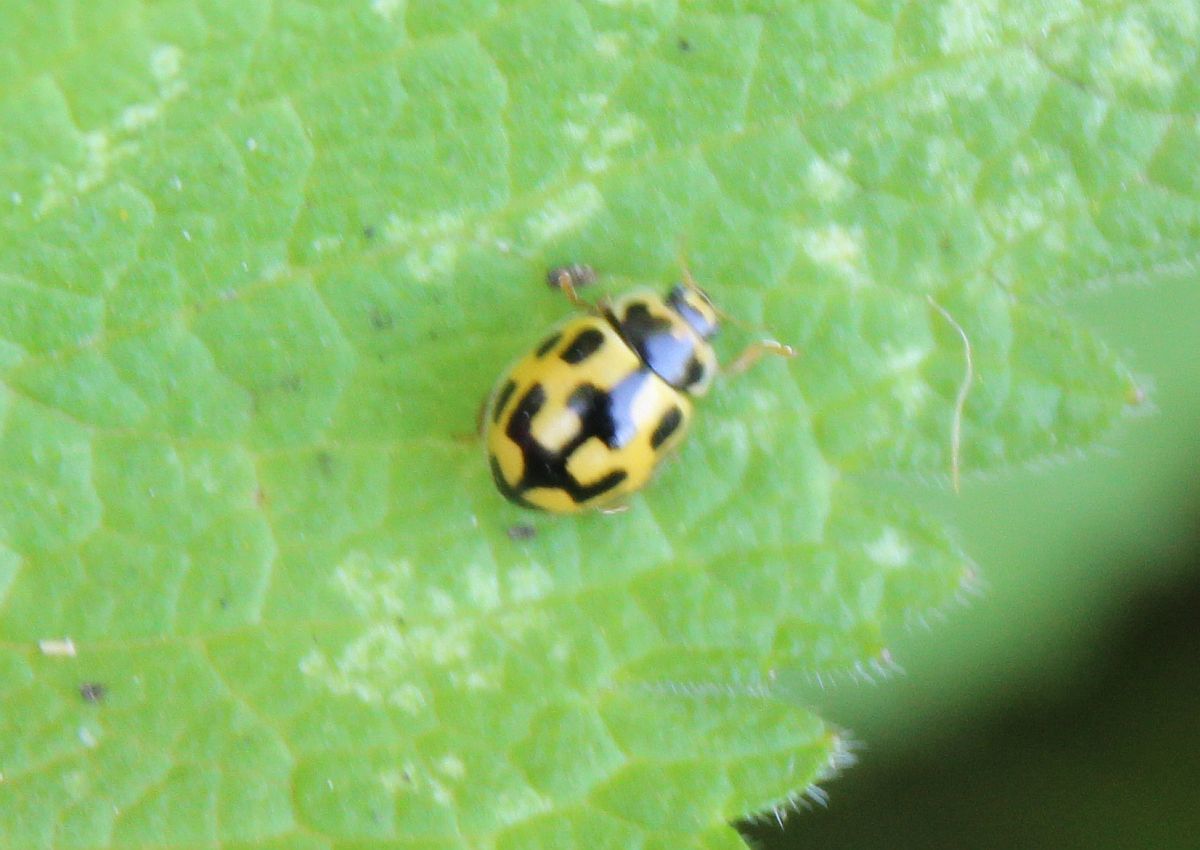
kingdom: Animalia
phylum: Arthropoda
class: Insecta
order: Coleoptera
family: Coccinellidae
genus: Propylaea
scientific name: Propylaea quatuordecimpunctata
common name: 14-spotted ladybird beetle
